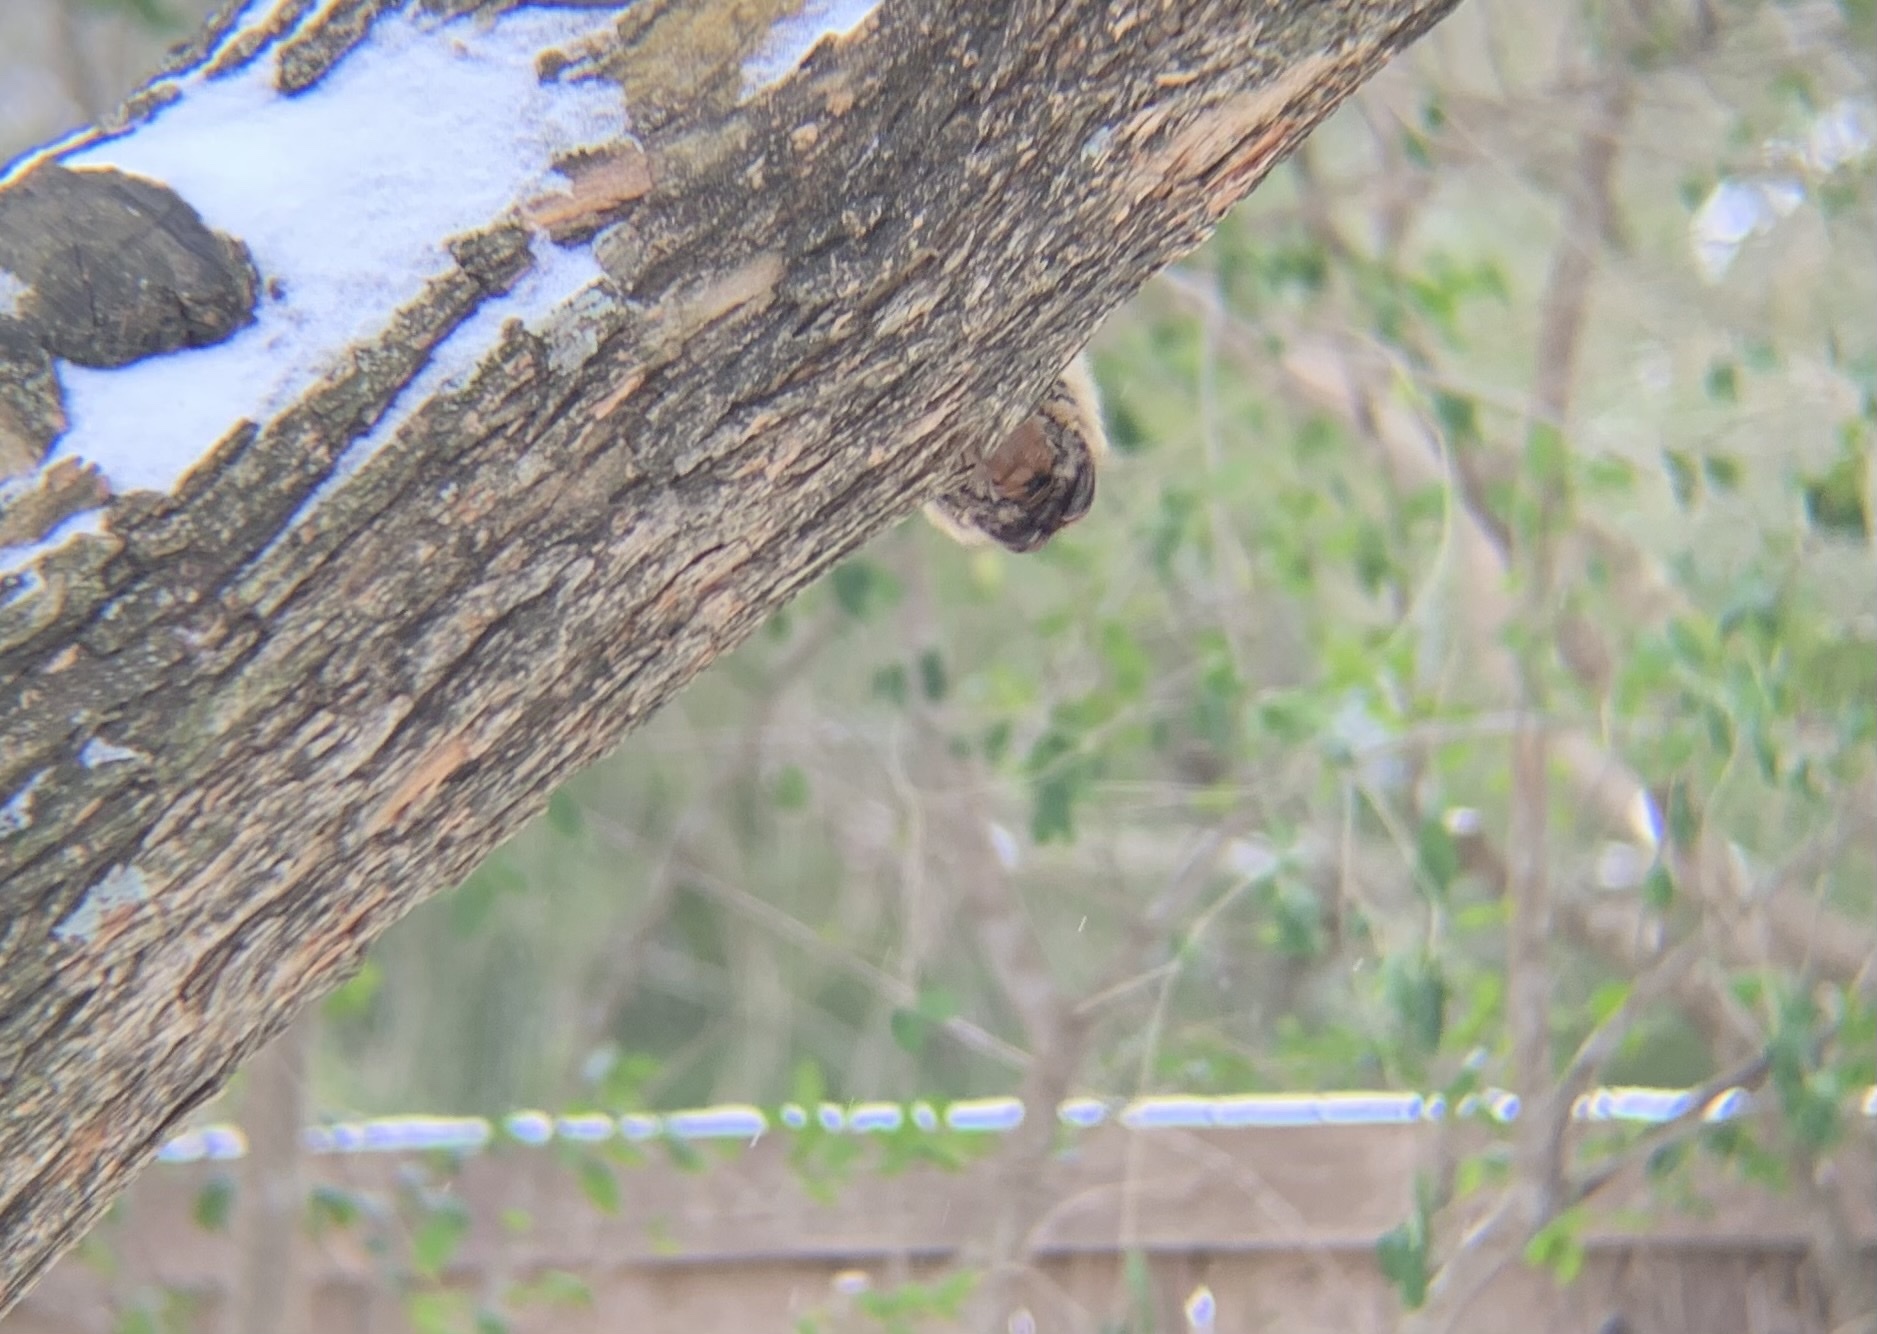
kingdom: Animalia
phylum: Chordata
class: Aves
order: Passeriformes
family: Troglodytidae
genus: Thryothorus
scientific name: Thryothorus ludovicianus
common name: Carolina wren
